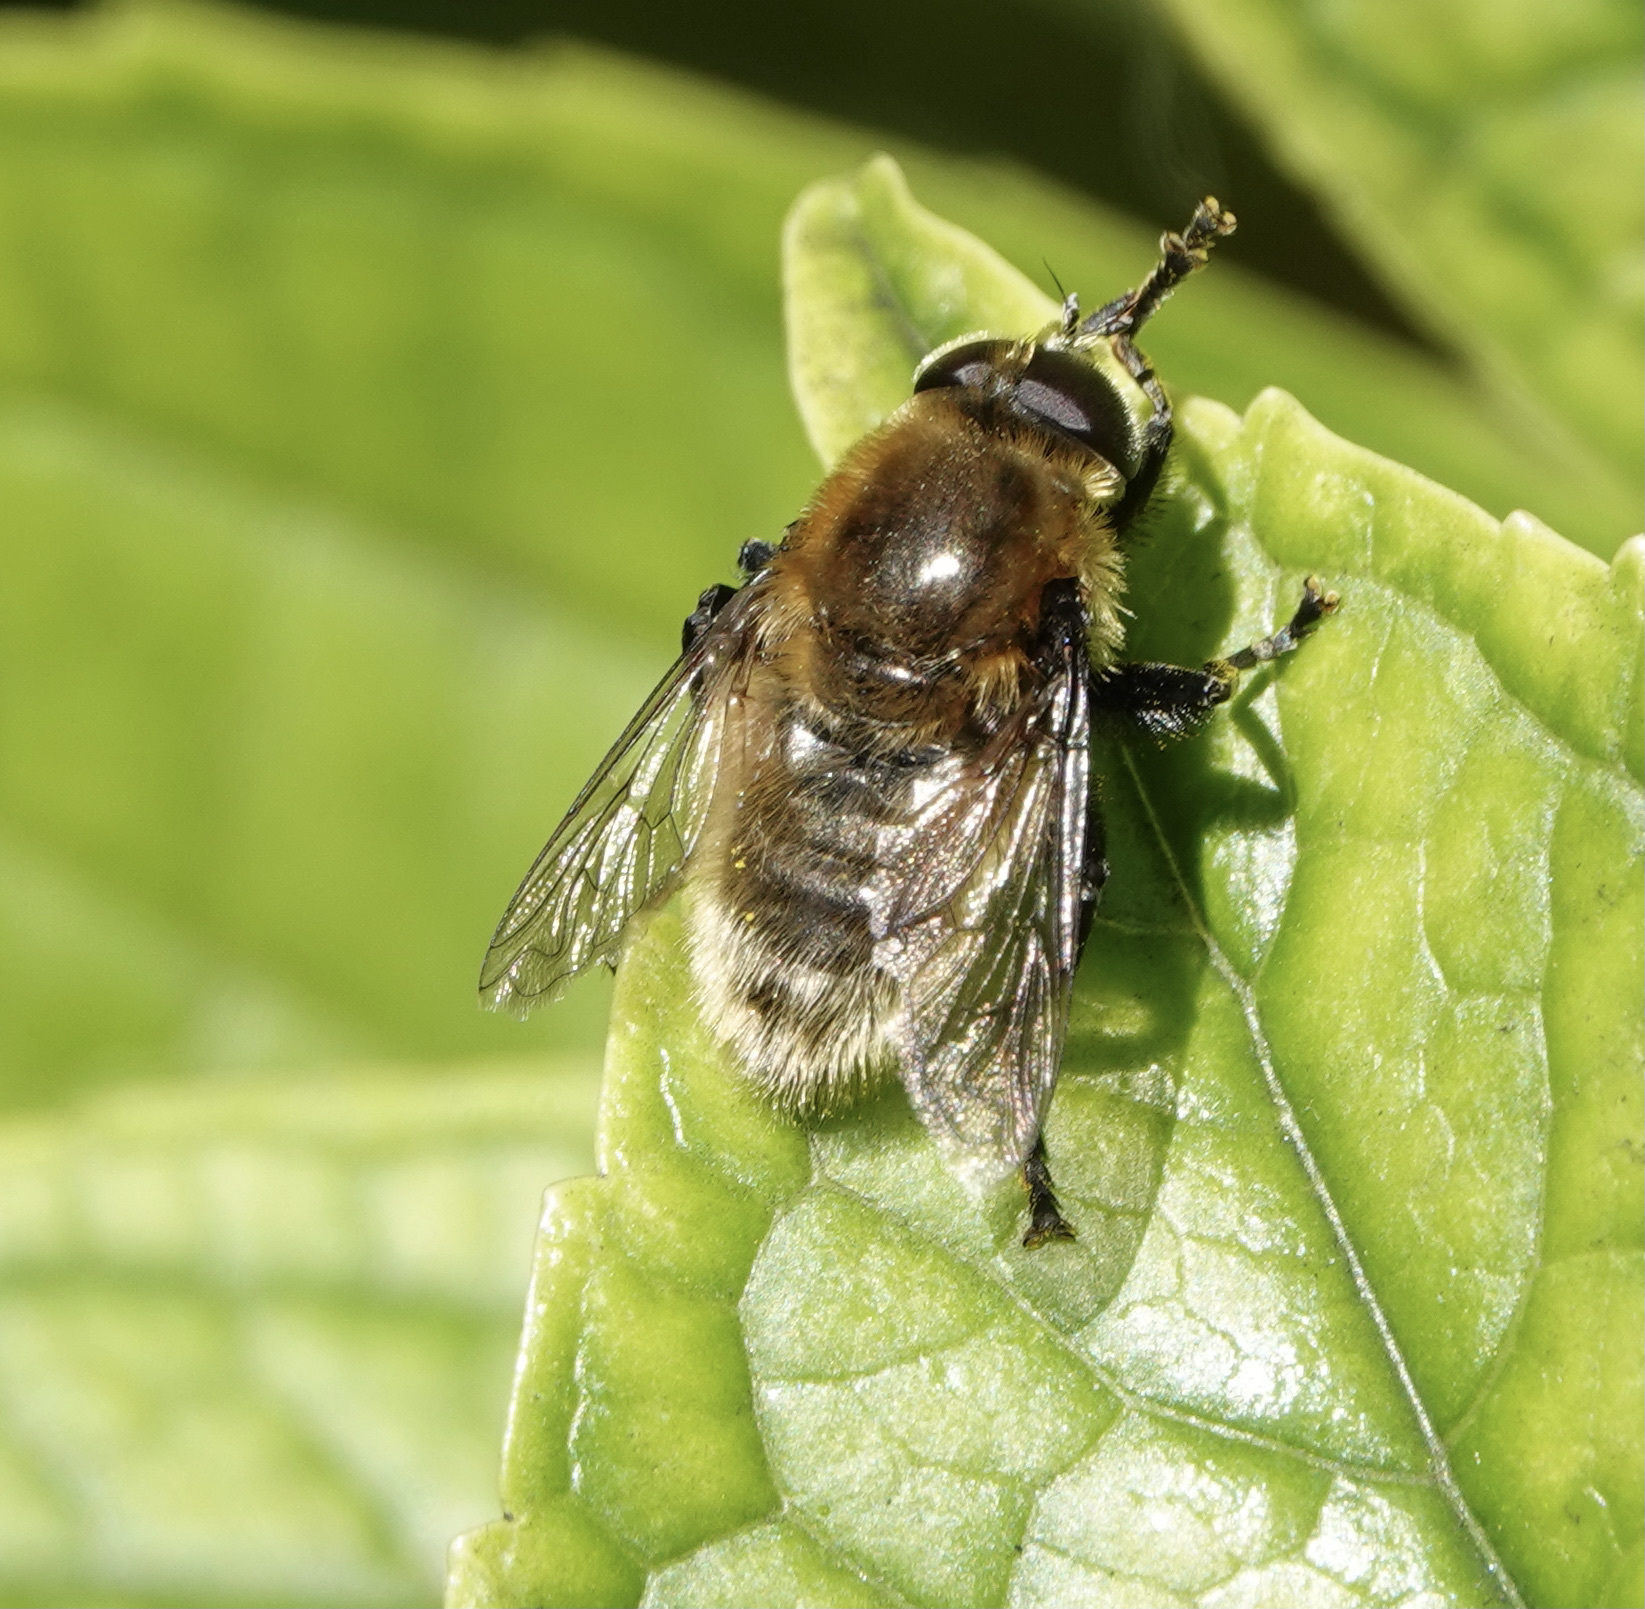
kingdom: Animalia
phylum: Arthropoda
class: Insecta
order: Diptera
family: Syrphidae
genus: Merodon
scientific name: Merodon equestris
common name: Greater bulb-fly
